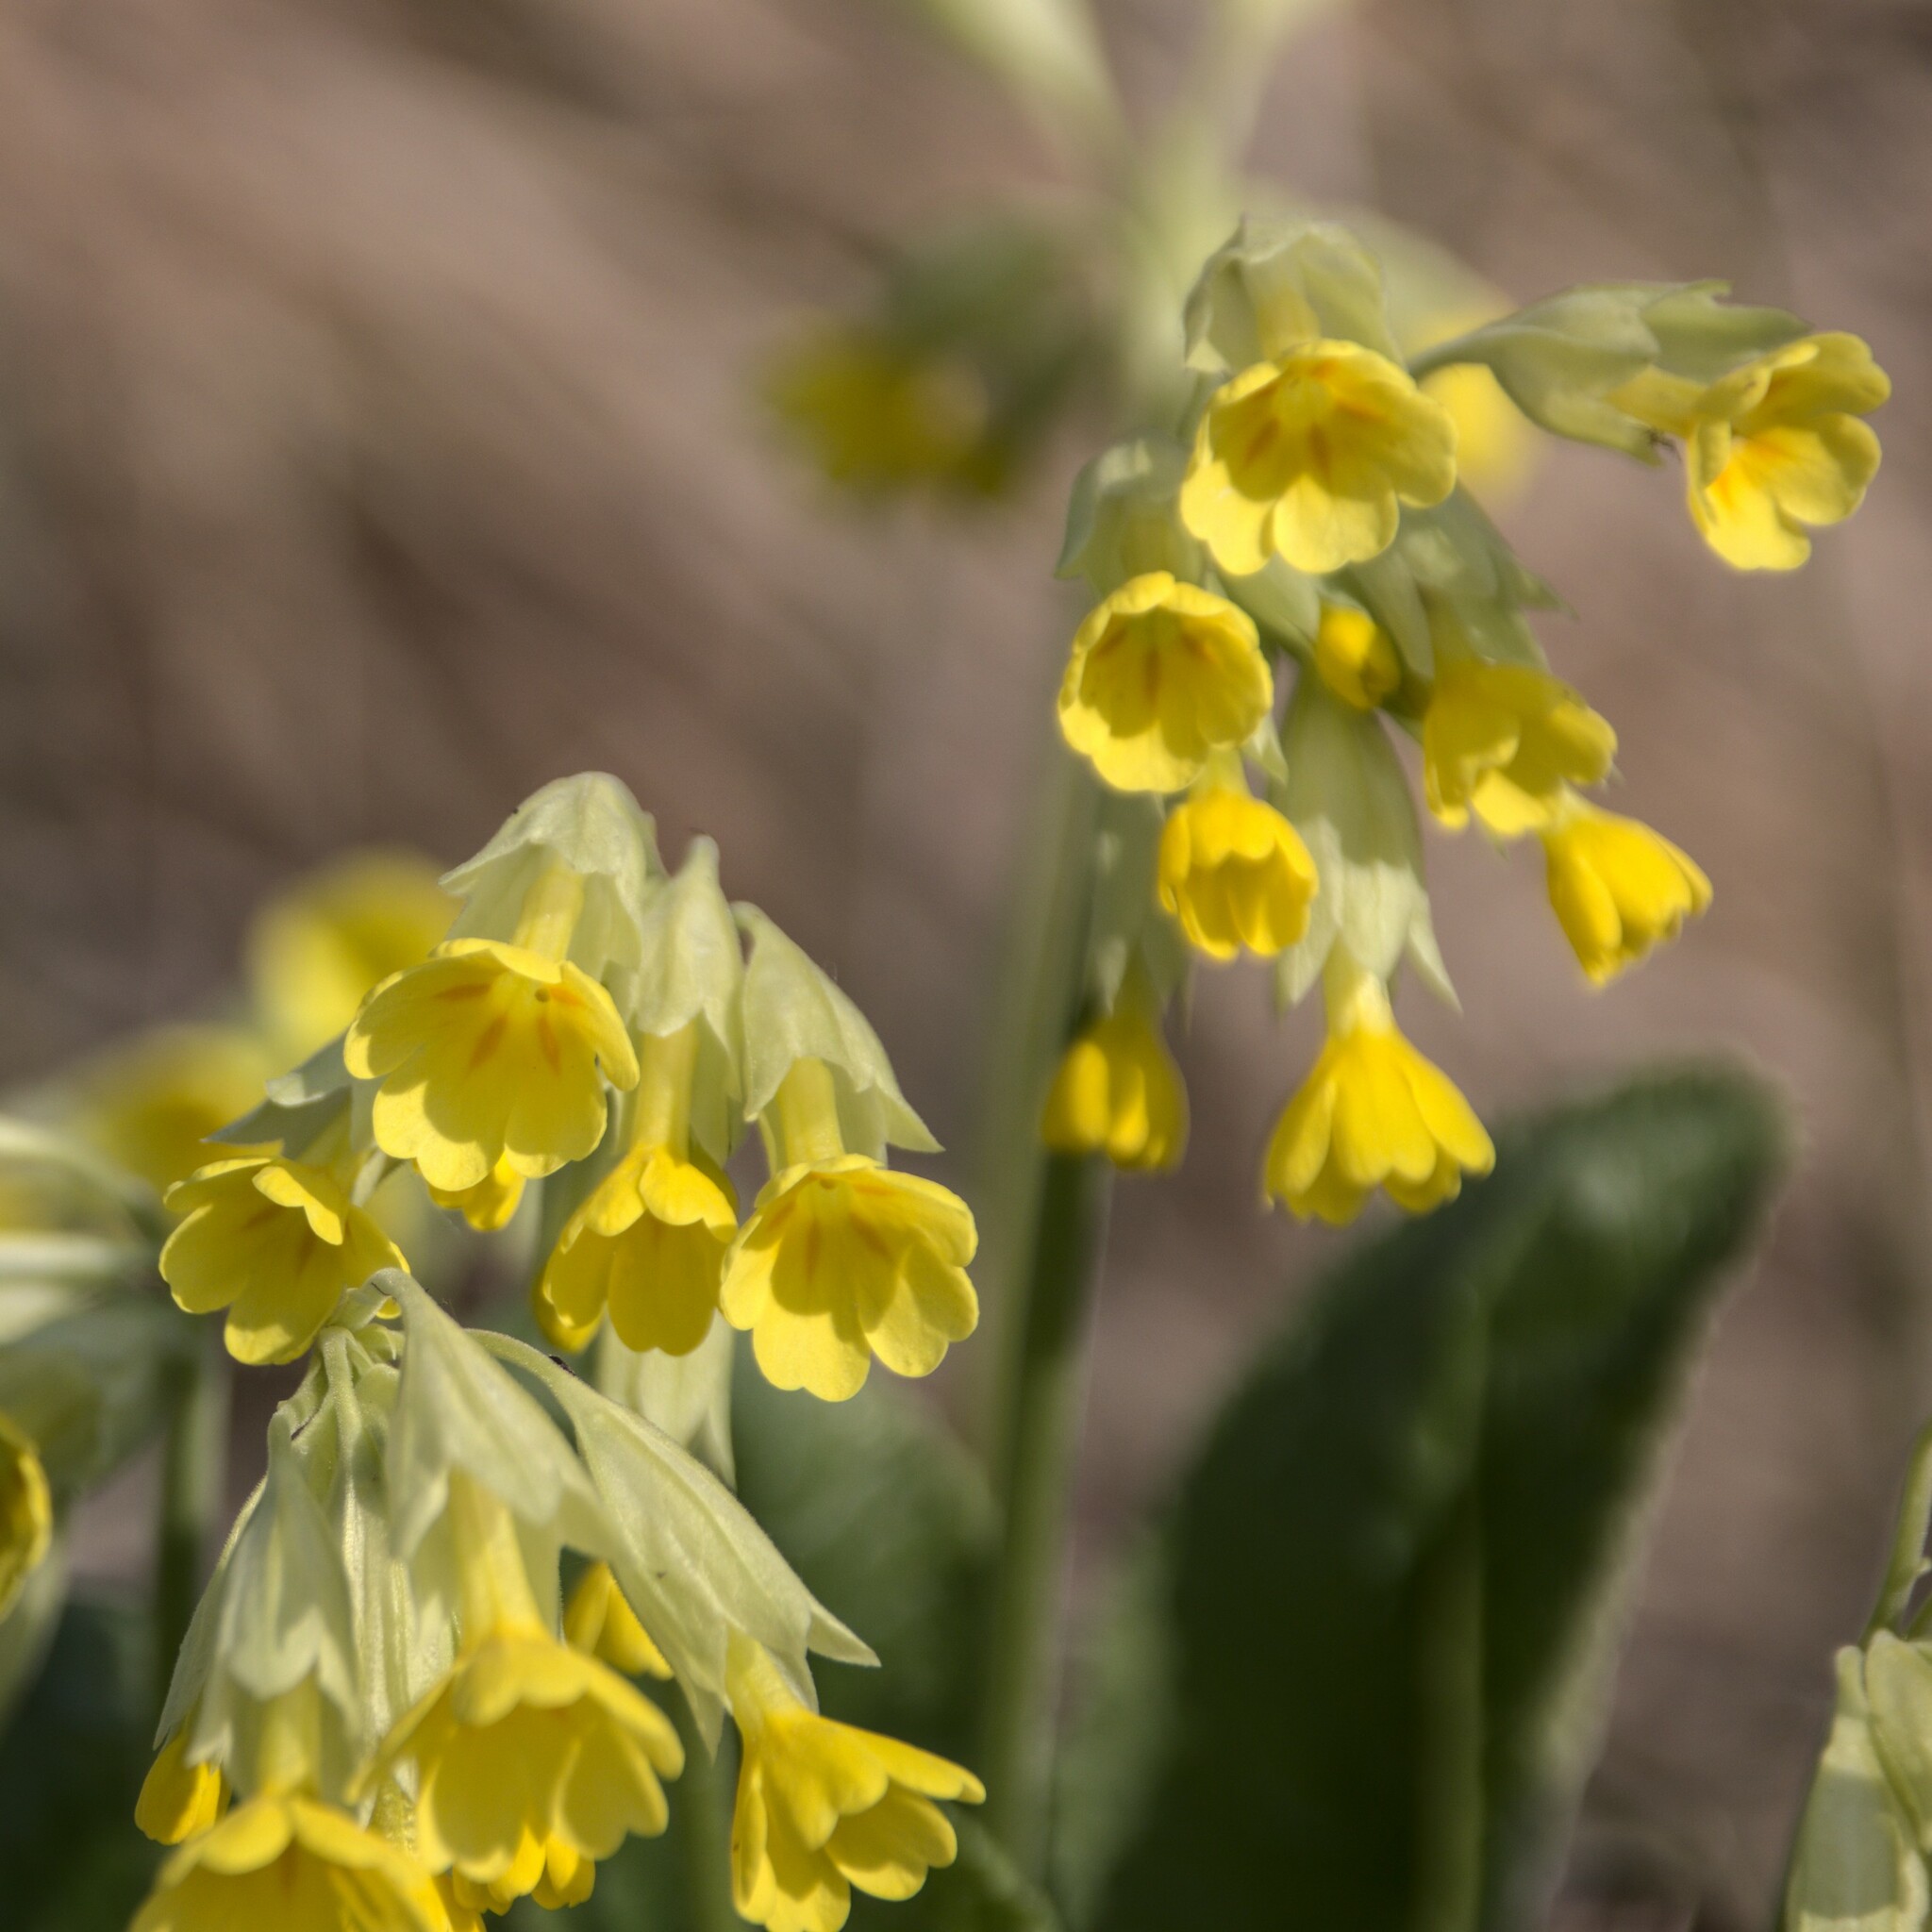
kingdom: Plantae
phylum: Tracheophyta
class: Magnoliopsida
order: Ericales
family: Primulaceae
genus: Primula
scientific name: Primula veris
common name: Cowslip
